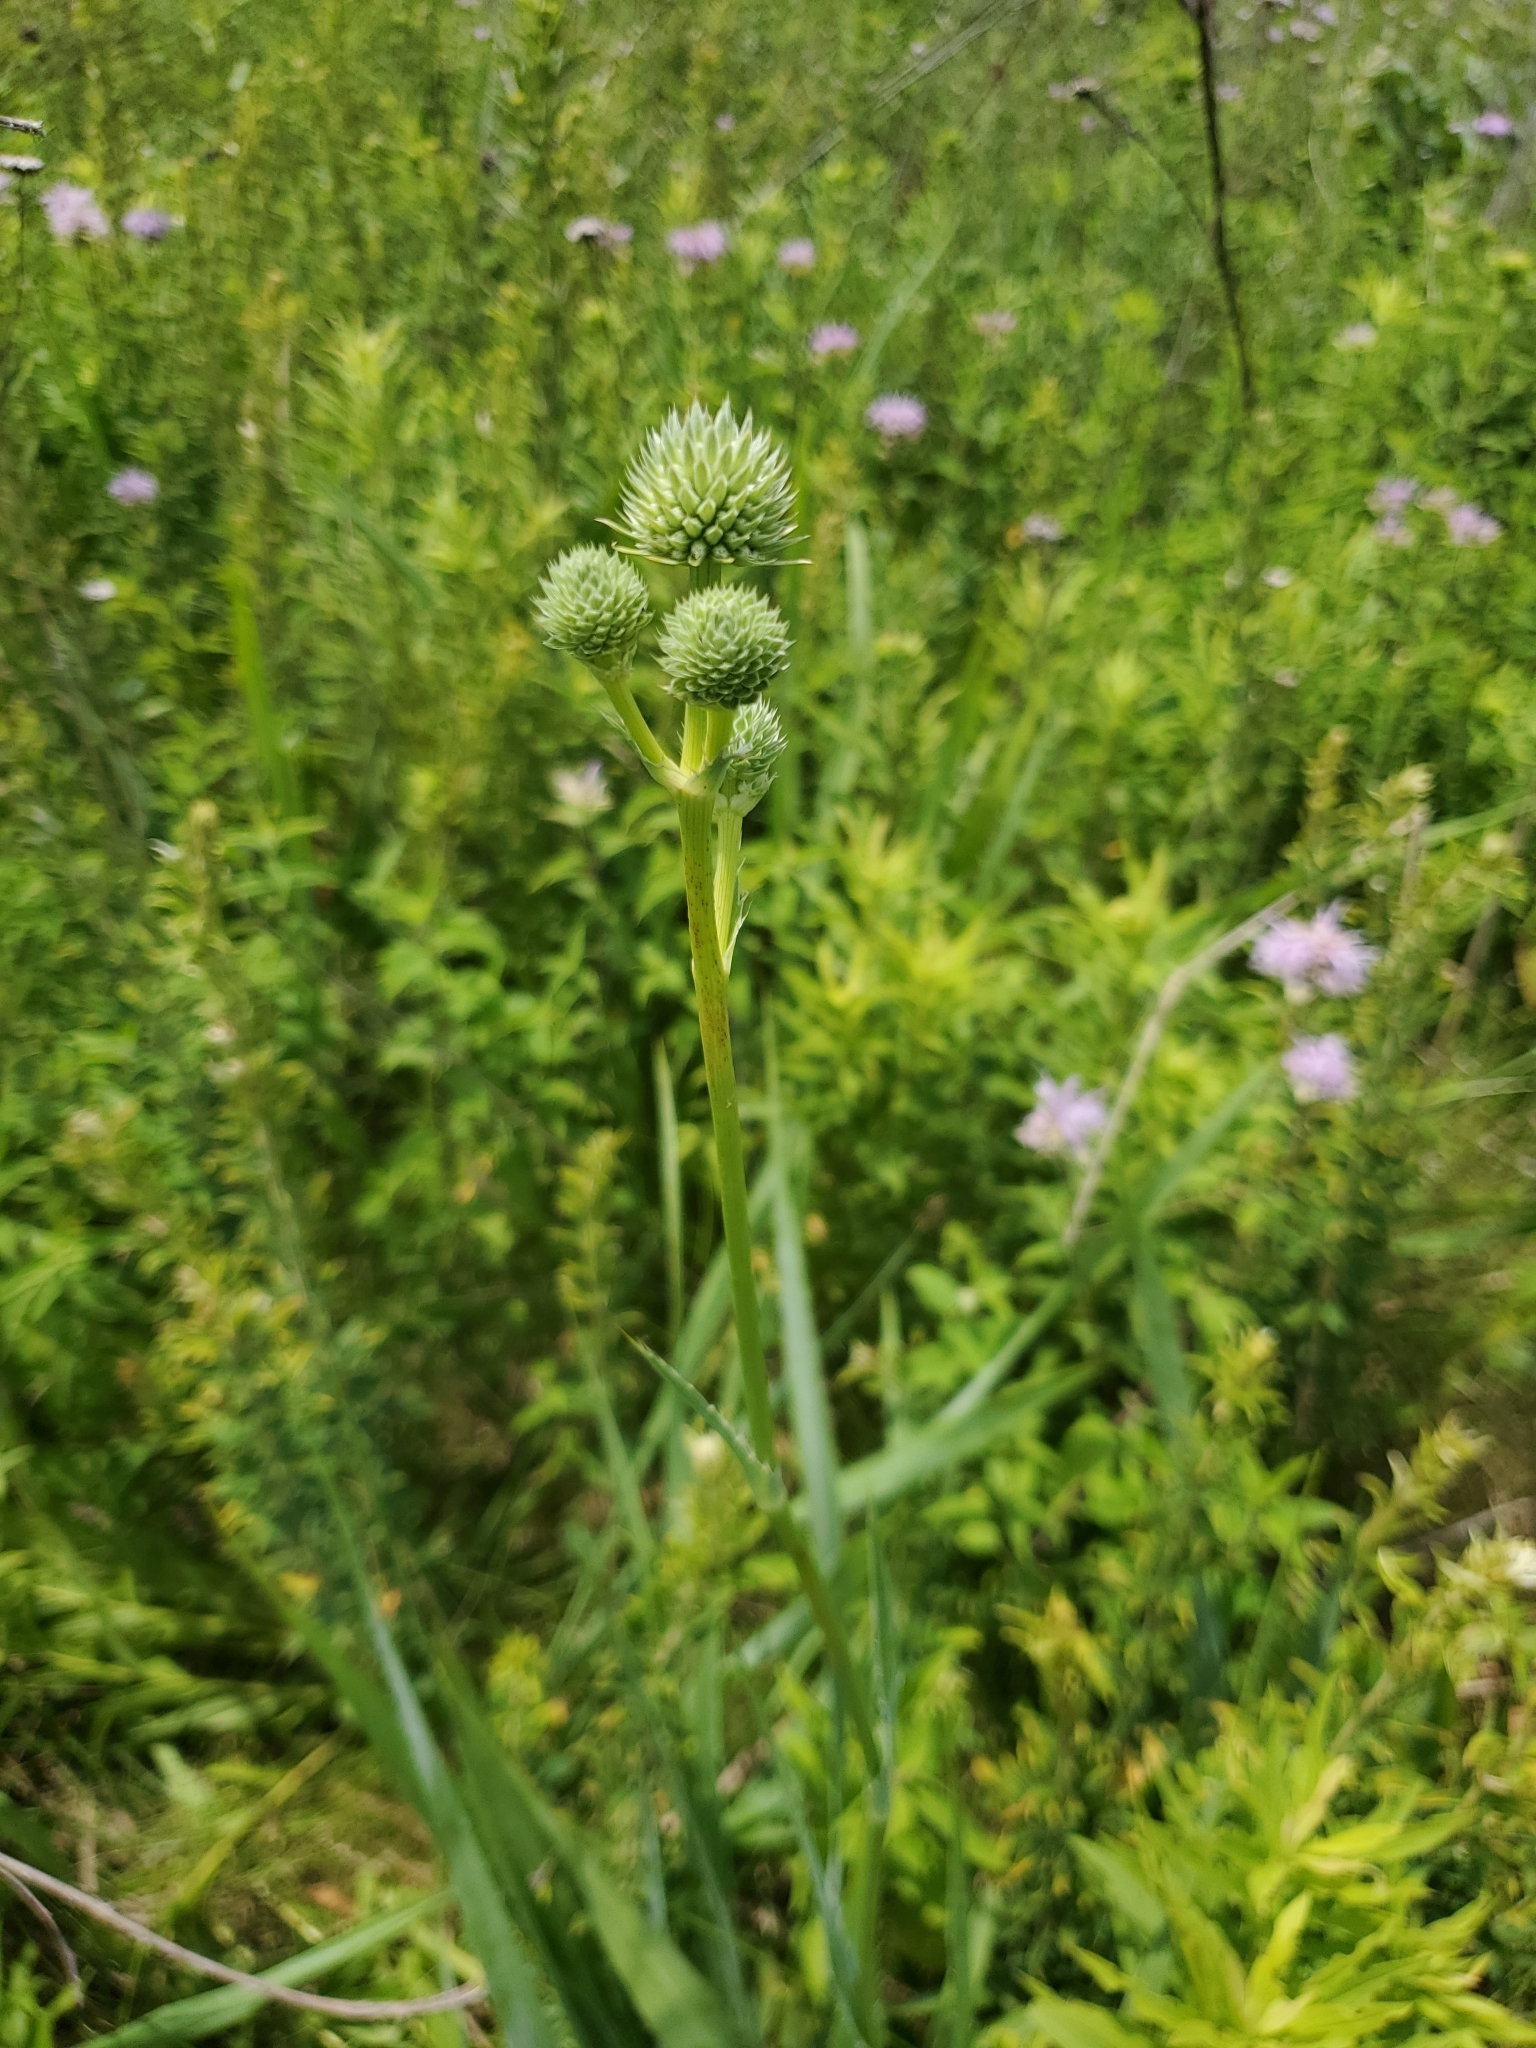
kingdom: Plantae
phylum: Tracheophyta
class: Magnoliopsida
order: Apiales
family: Apiaceae
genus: Eryngium
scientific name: Eryngium yuccifolium
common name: Button eryngo
